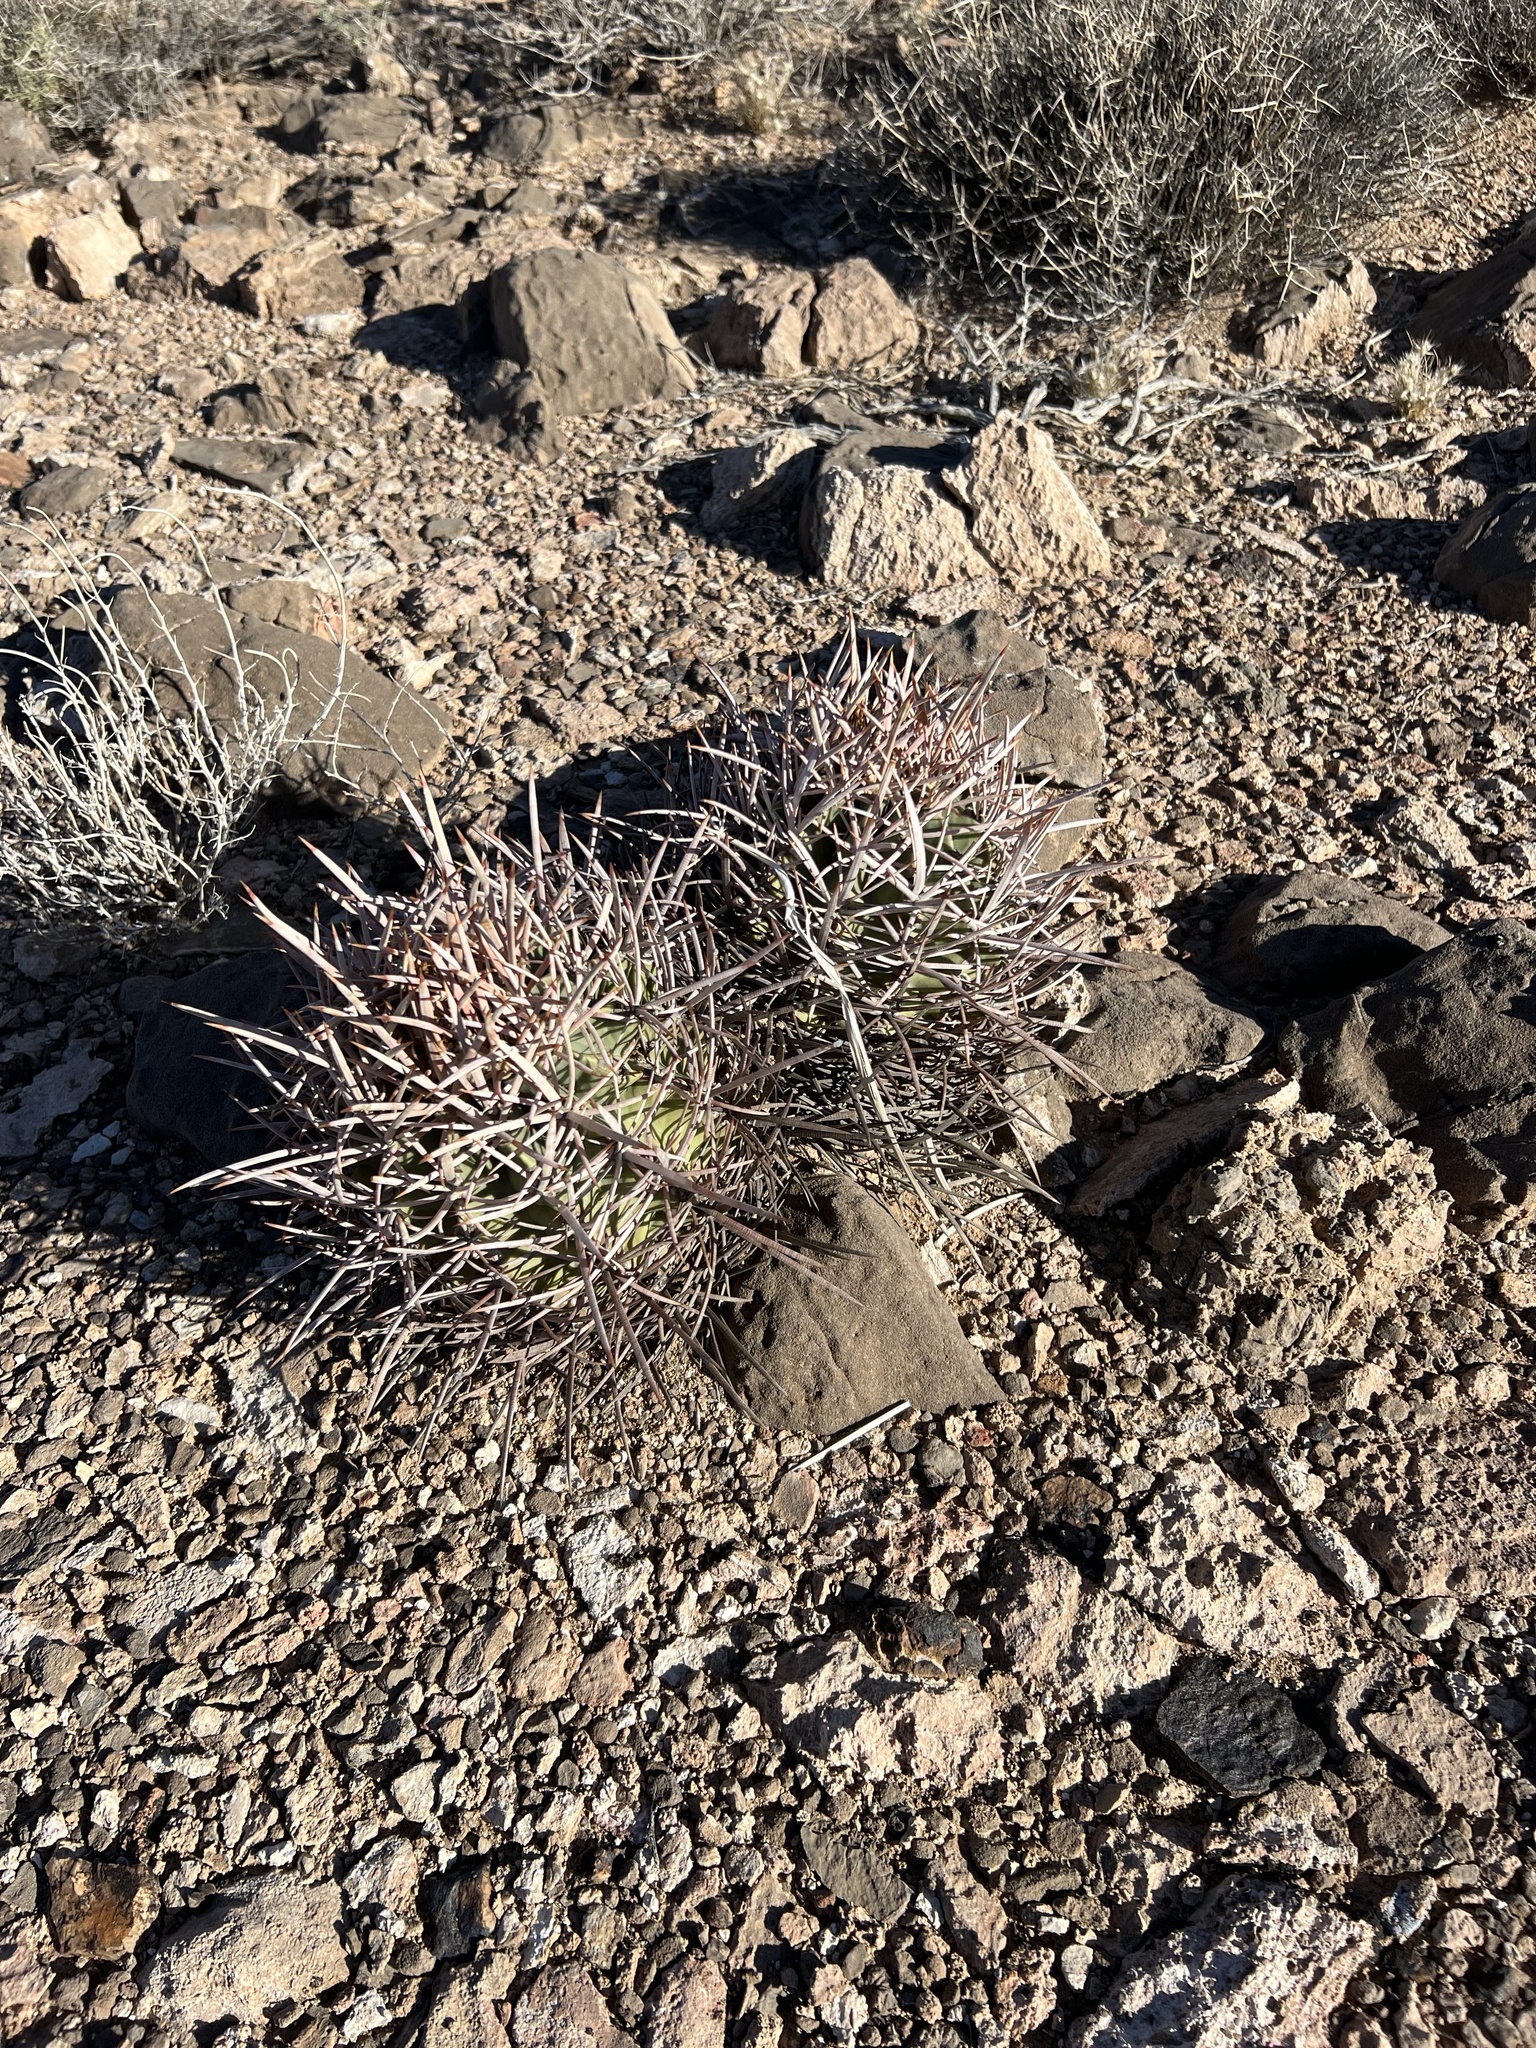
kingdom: Plantae
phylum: Tracheophyta
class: Magnoliopsida
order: Caryophyllales
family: Cactaceae
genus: Echinocactus
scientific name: Echinocactus polycephalus
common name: Cottontop cactus
